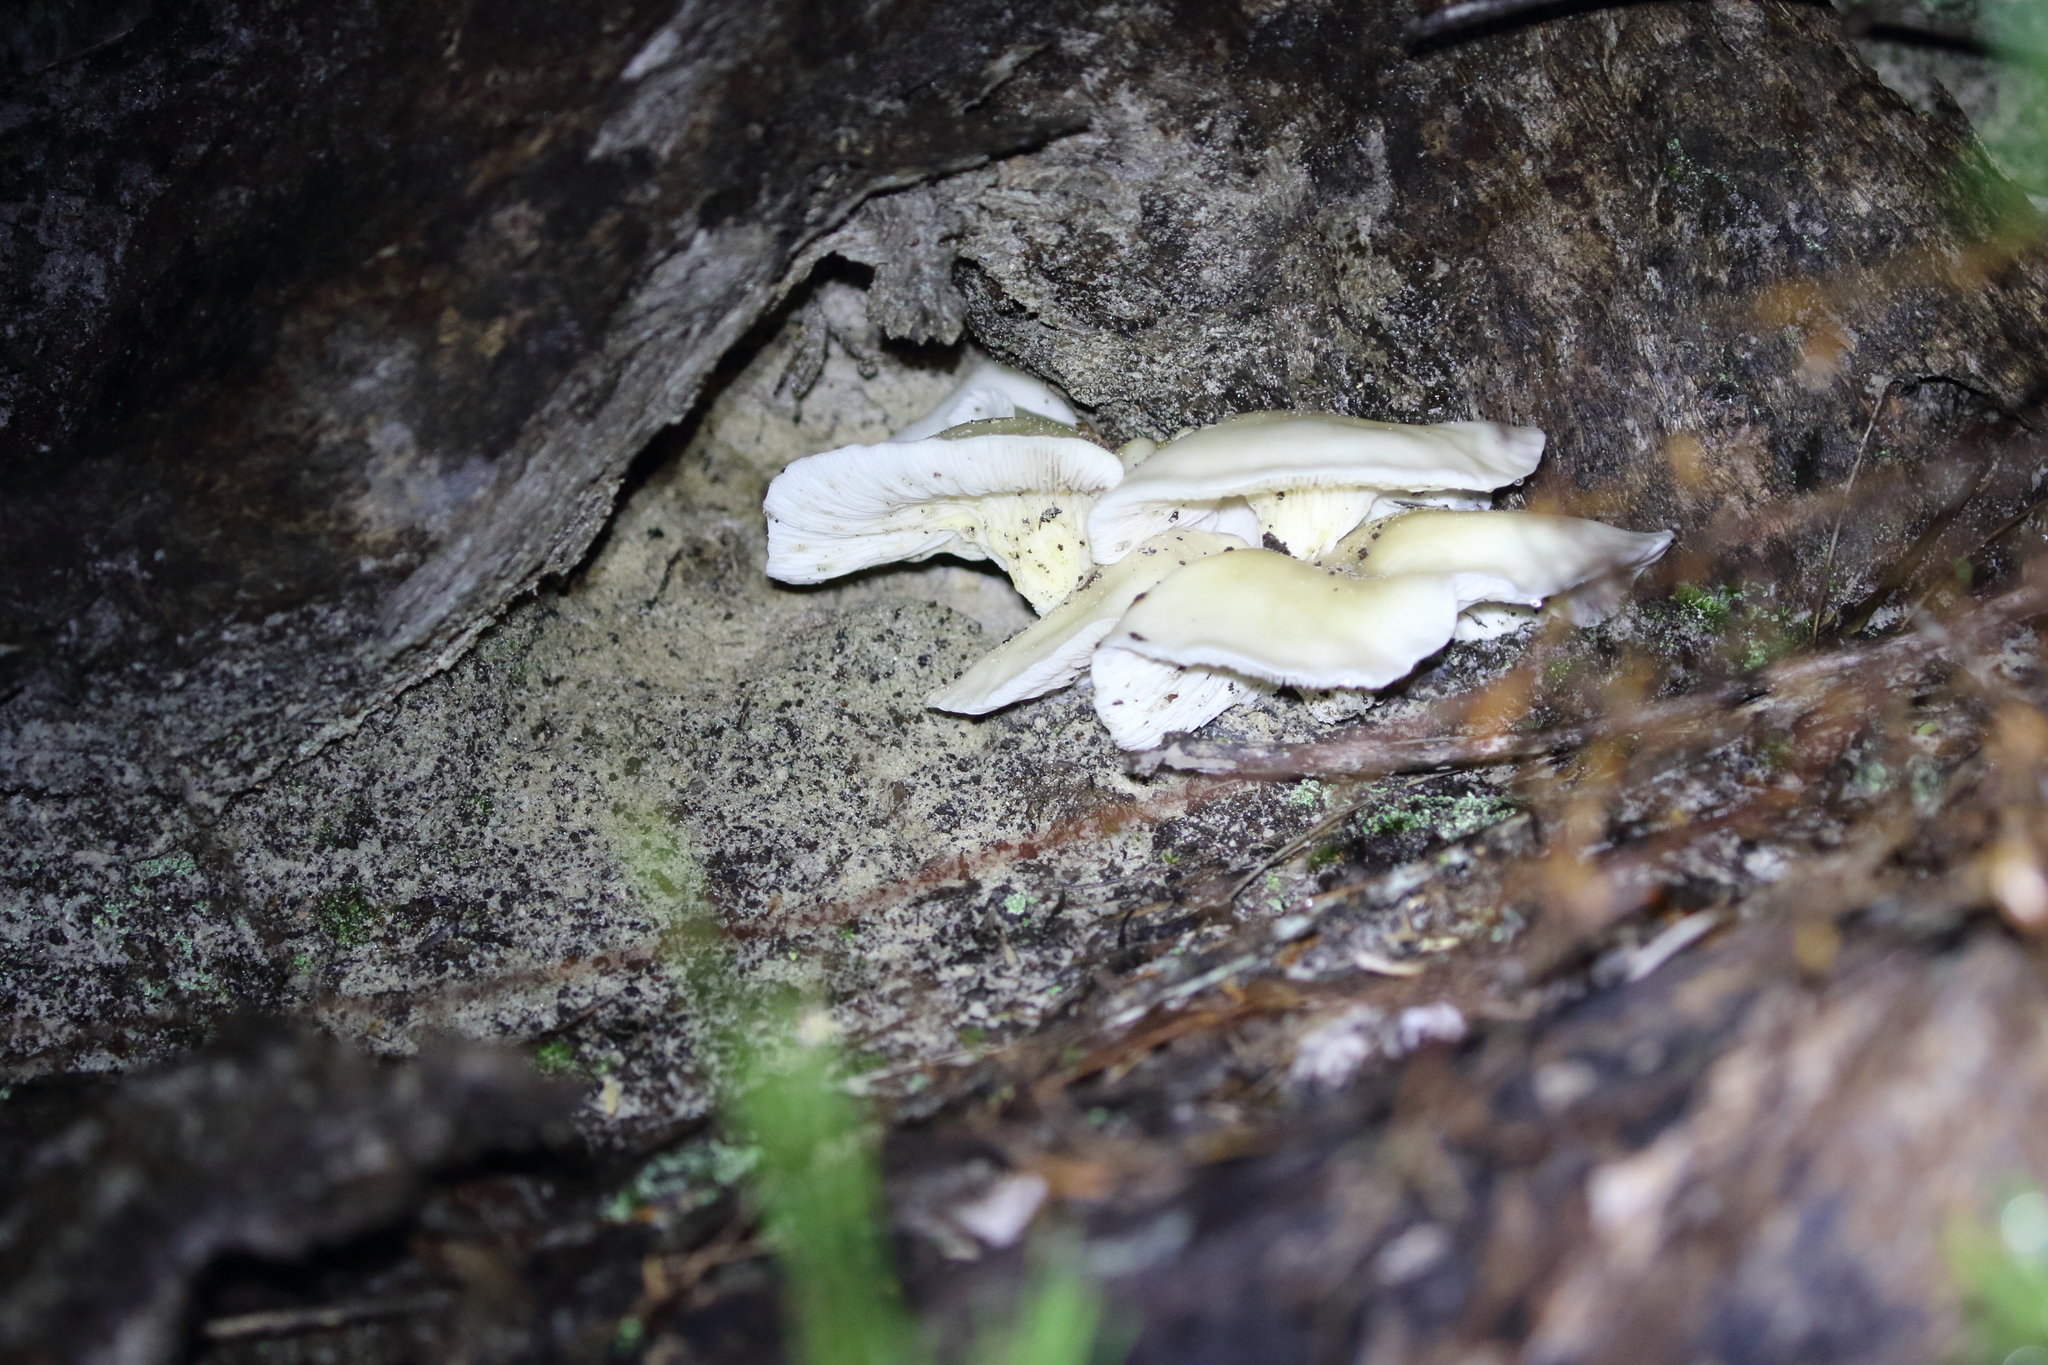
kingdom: Fungi
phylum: Basidiomycota
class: Agaricomycetes
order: Agaricales
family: Omphalotaceae
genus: Omphalotus
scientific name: Omphalotus nidiformis
